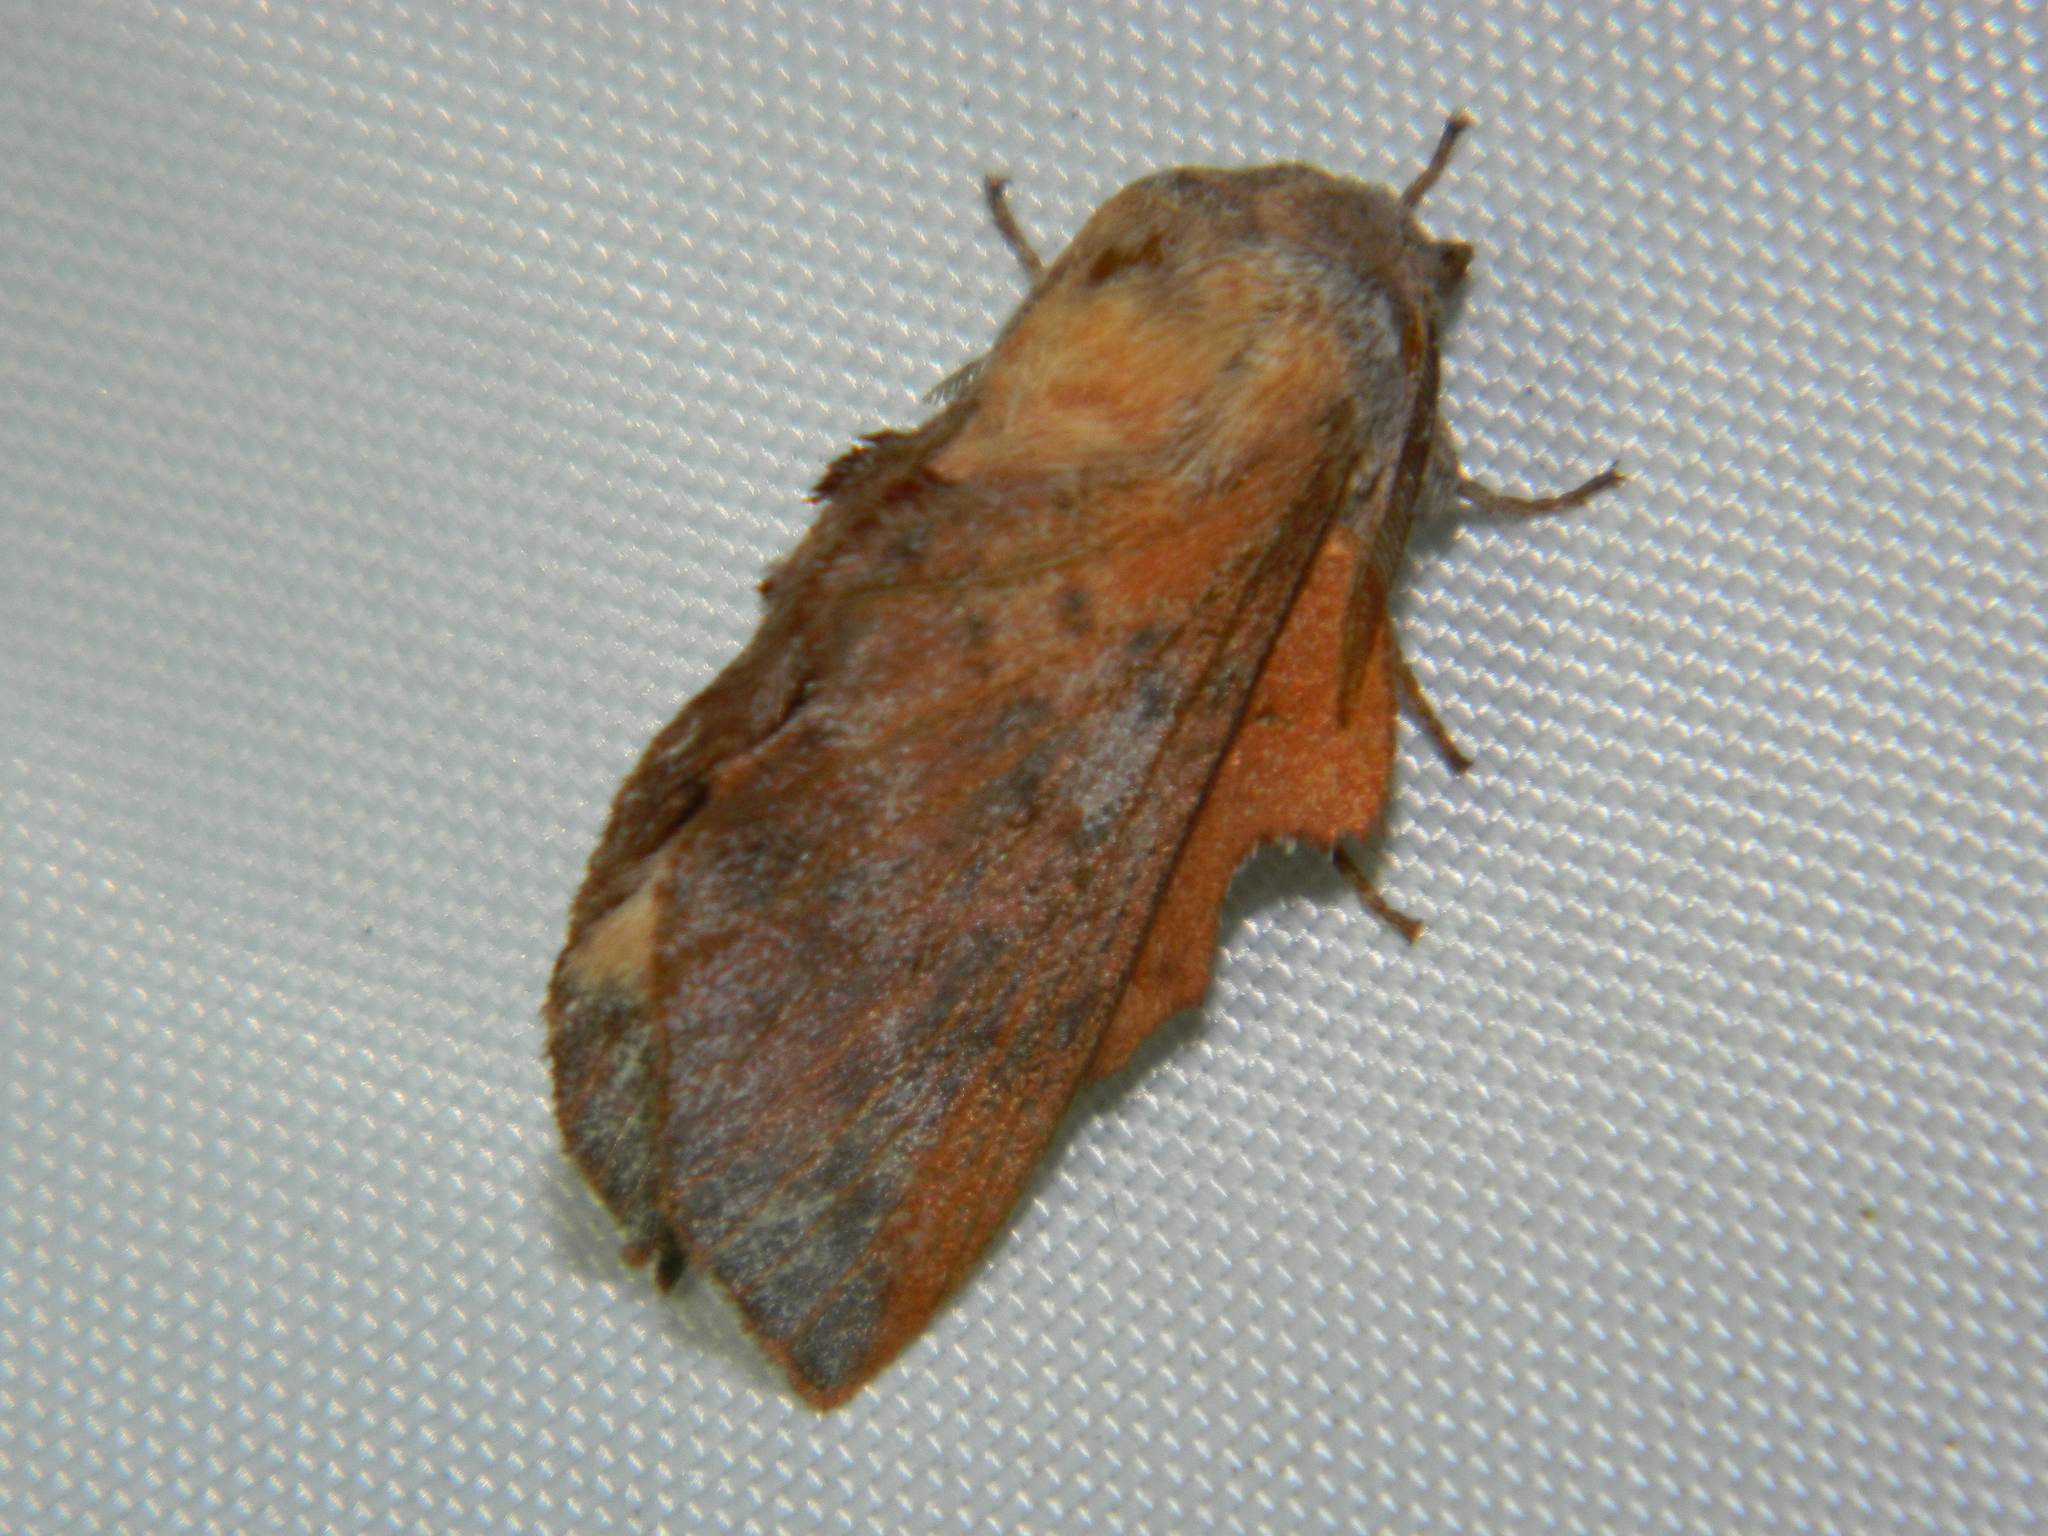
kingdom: Animalia
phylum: Arthropoda
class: Insecta
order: Lepidoptera
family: Lasiocampidae
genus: Phyllodesma
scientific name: Phyllodesma americana
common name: American lappet moth
